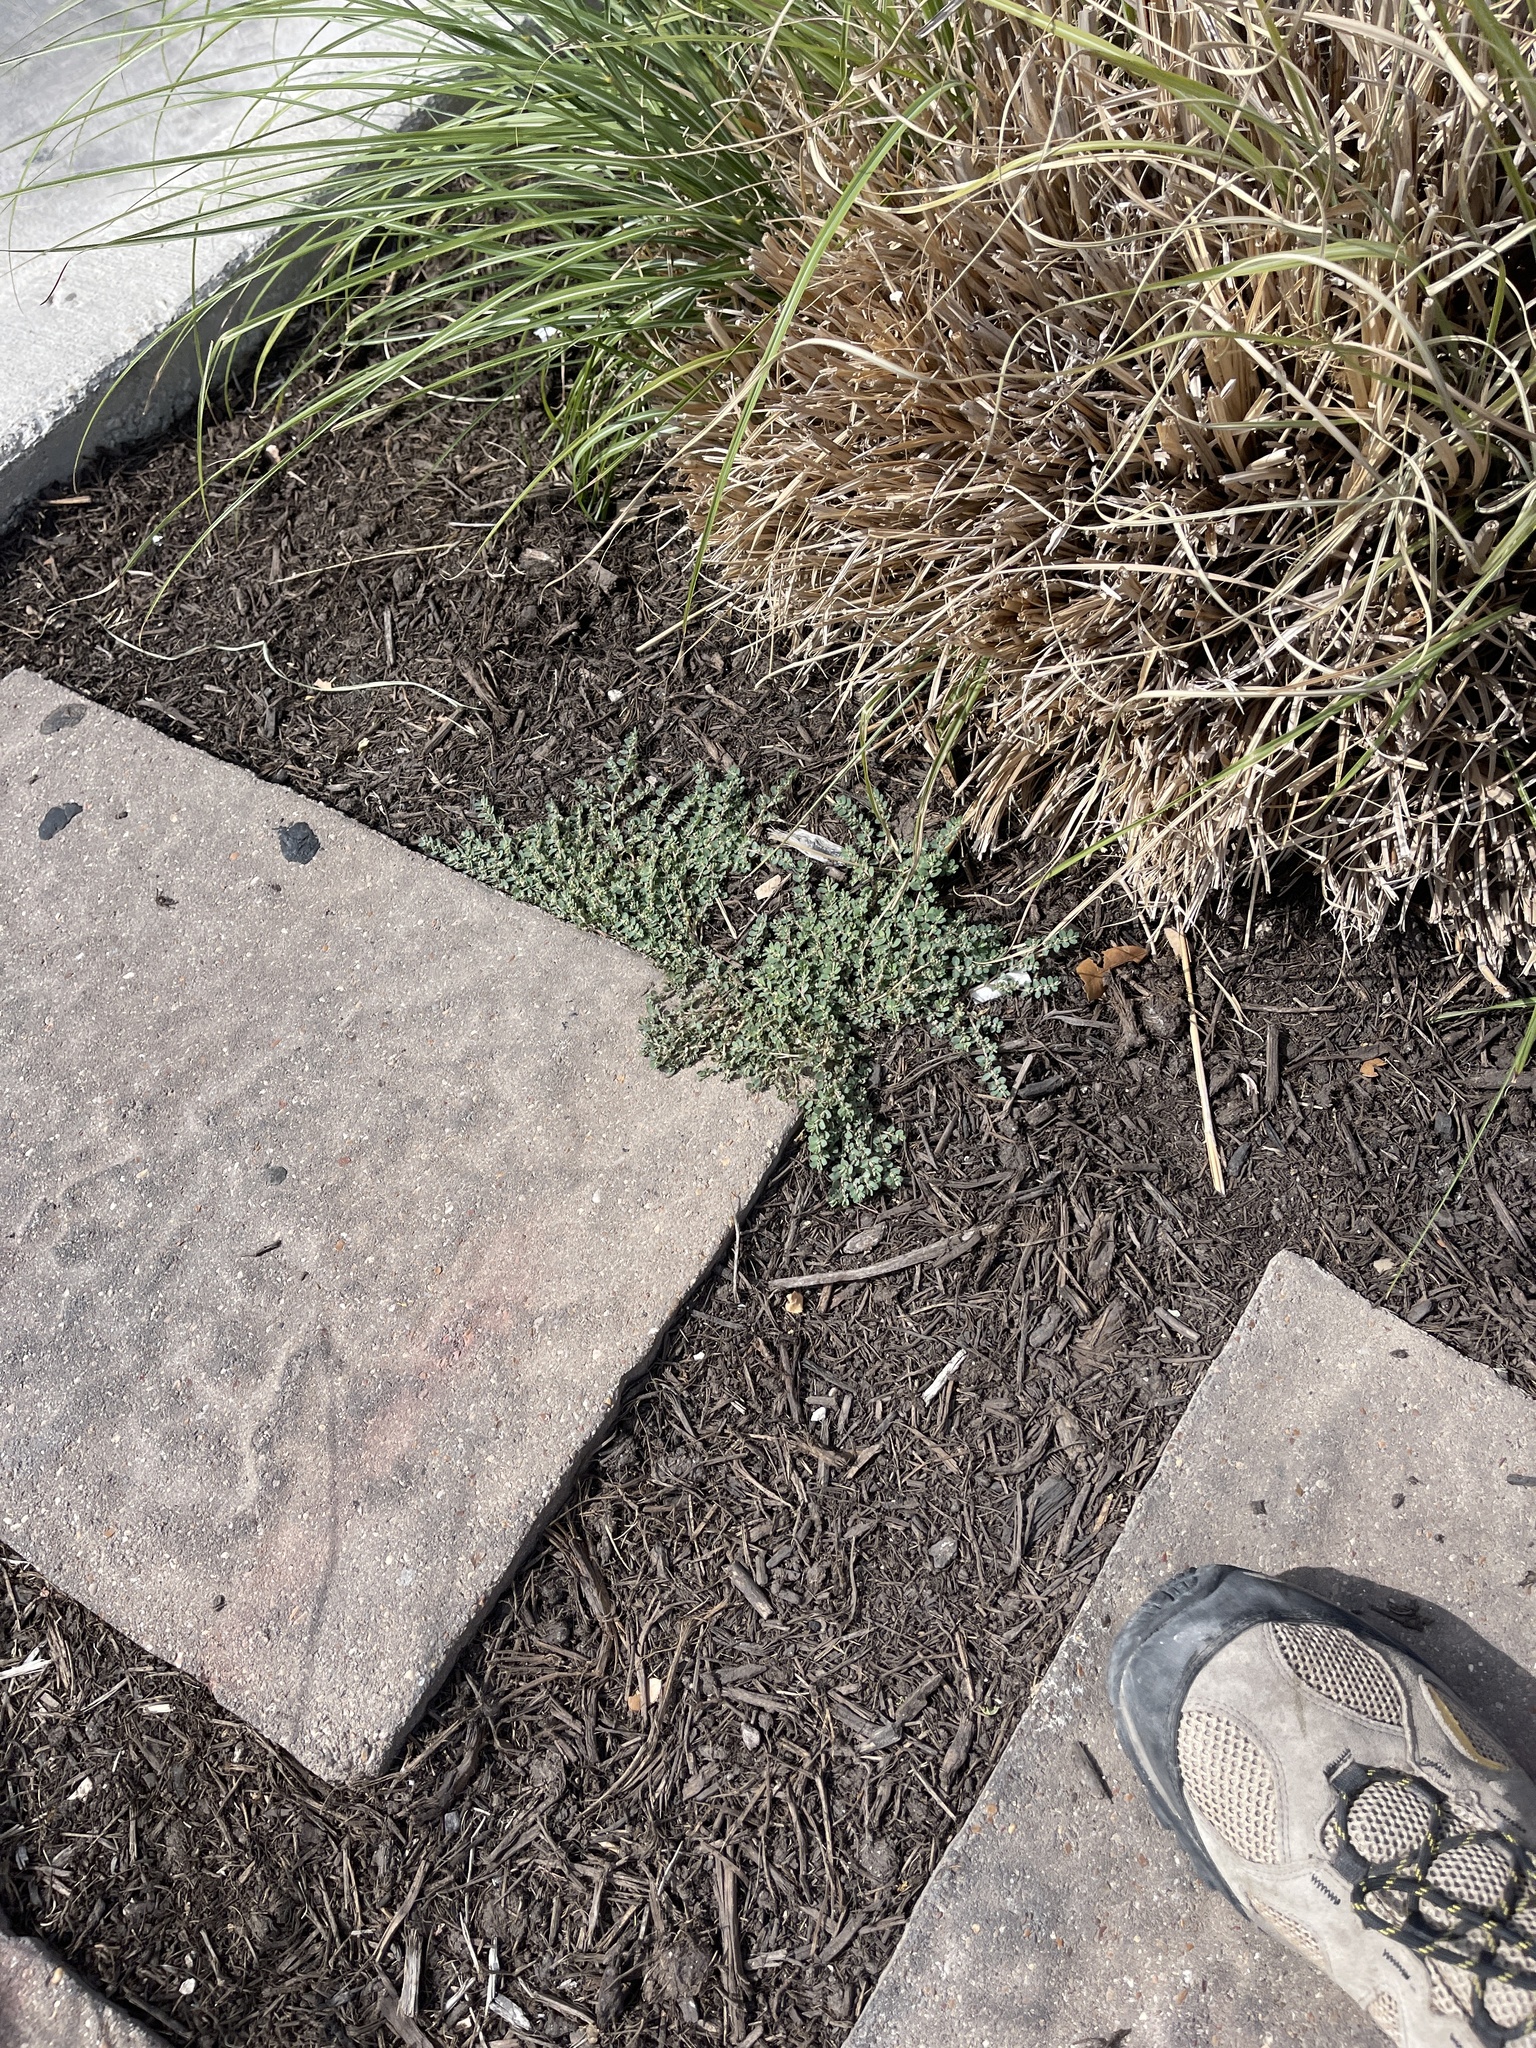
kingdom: Plantae
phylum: Tracheophyta
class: Magnoliopsida
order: Malpighiales
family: Euphorbiaceae
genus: Euphorbia
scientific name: Euphorbia prostrata
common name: Prostrate sandmat
